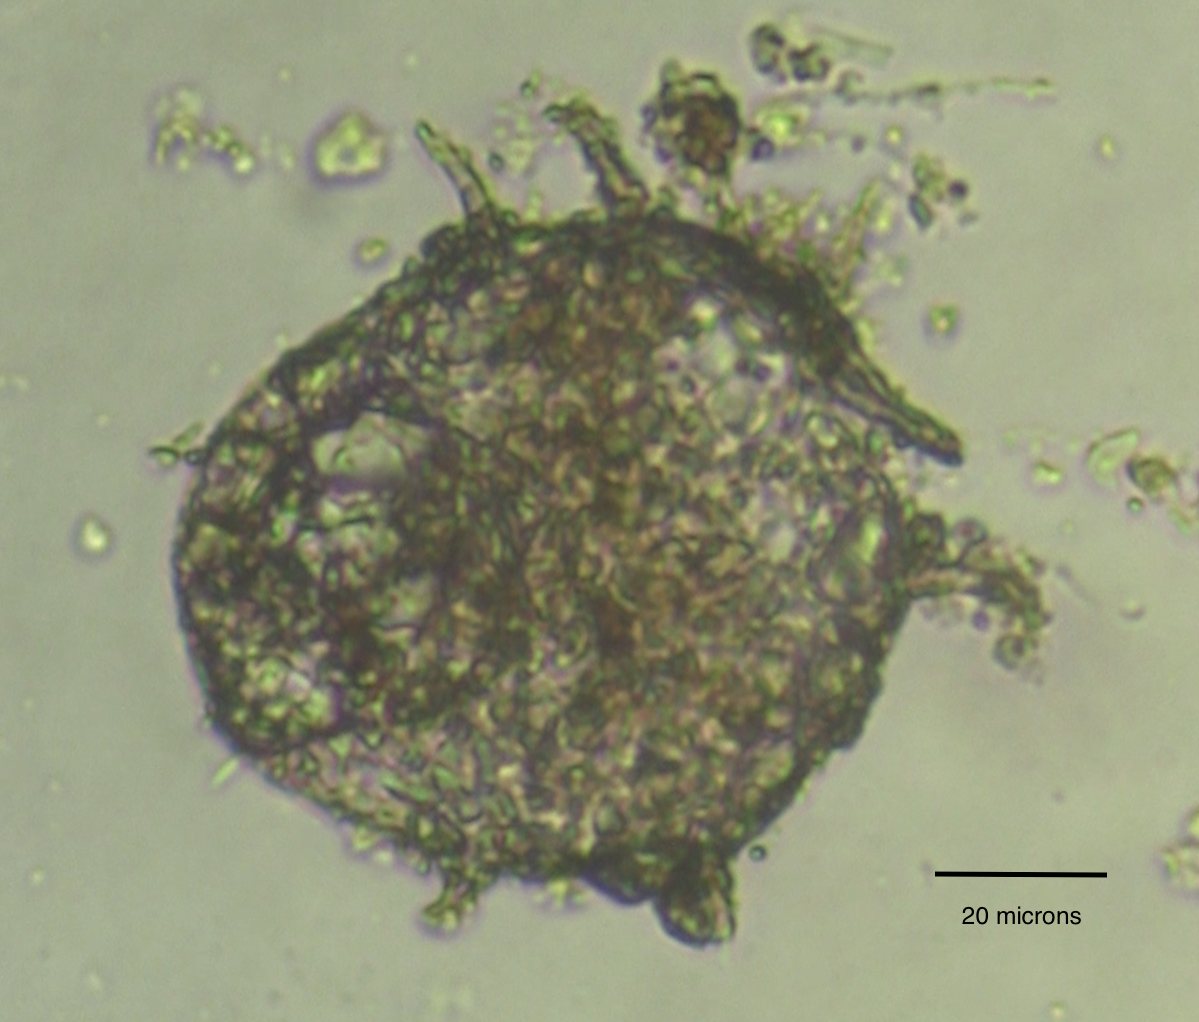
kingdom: Protozoa
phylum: Amoebozoa
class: Lobosa
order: Arcellinida
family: Centropyxidae
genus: Centropyxis
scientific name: Centropyxis aculeata
